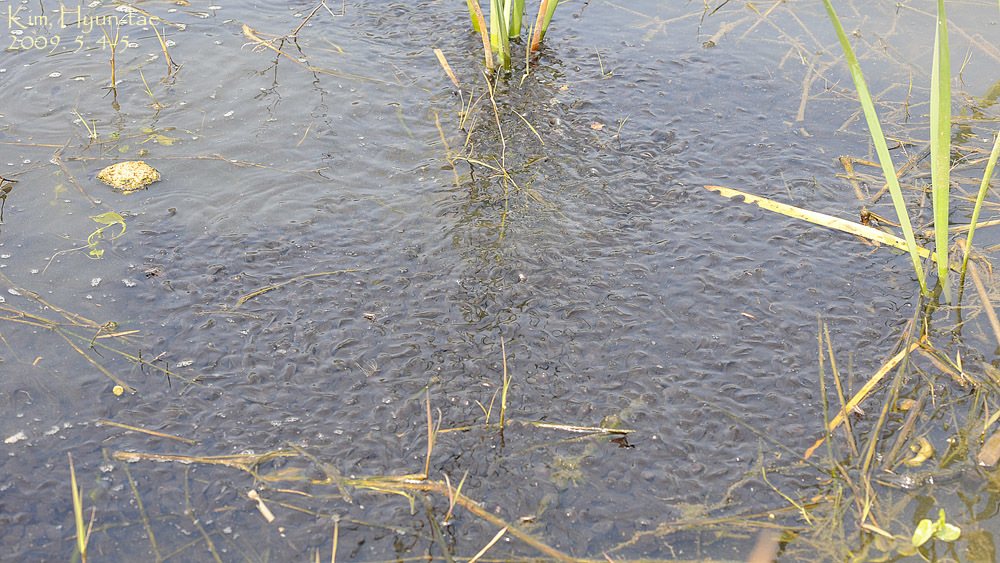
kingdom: Animalia
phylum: Chordata
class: Amphibia
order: Anura
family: Bufonidae
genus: Bufo
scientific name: Bufo gargarizans
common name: Asiatic toad
